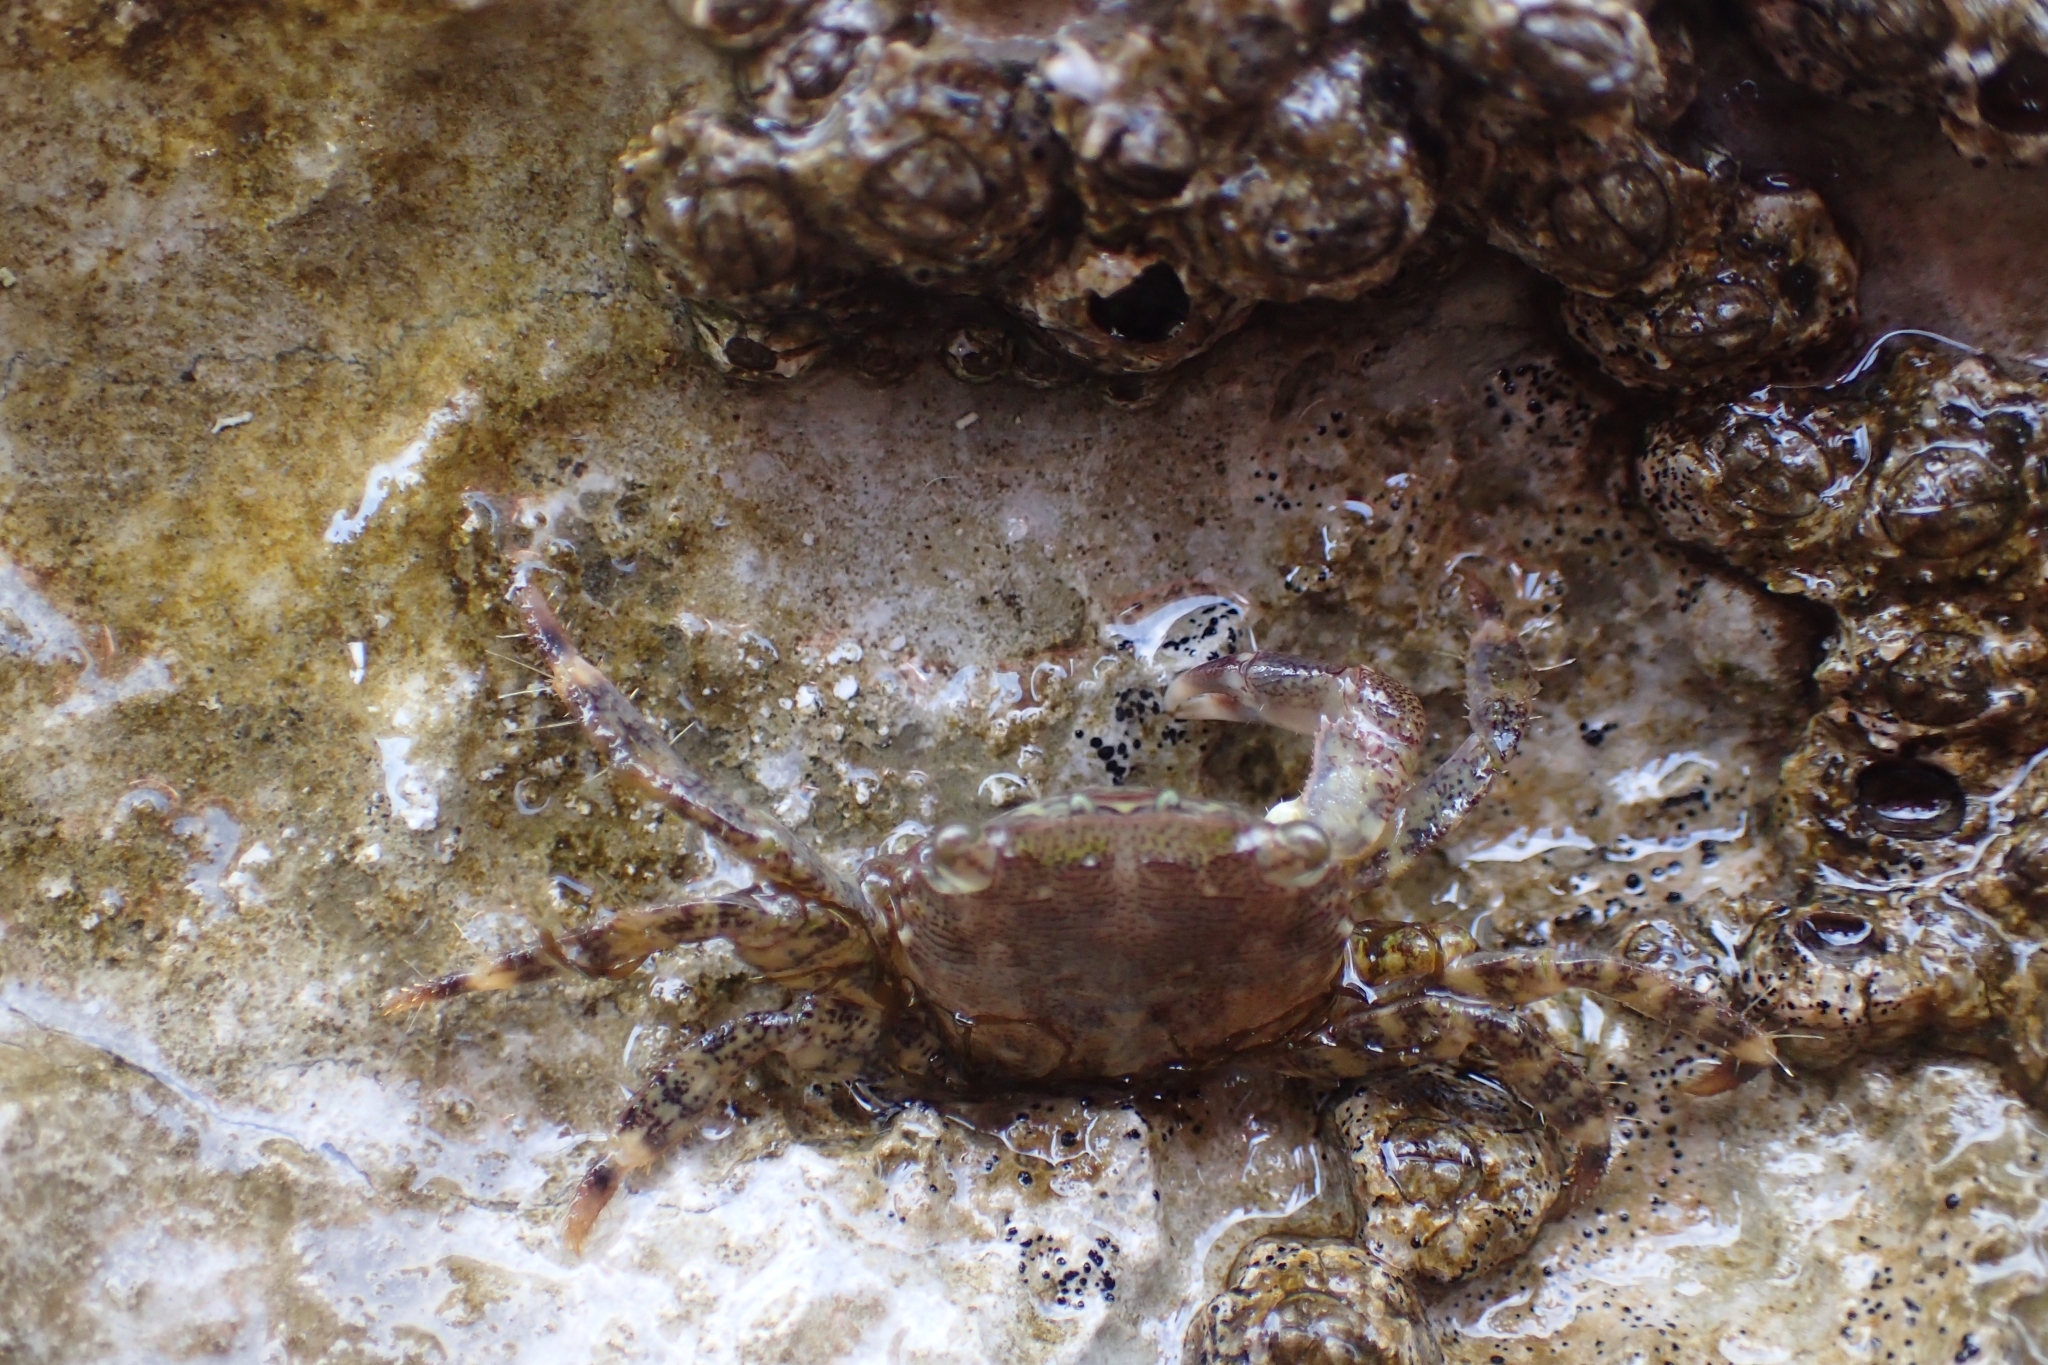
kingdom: Animalia
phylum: Arthropoda
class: Malacostraca
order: Decapoda
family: Grapsidae
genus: Pachygrapsus
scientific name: Pachygrapsus marmoratus
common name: Marbled rock crab
